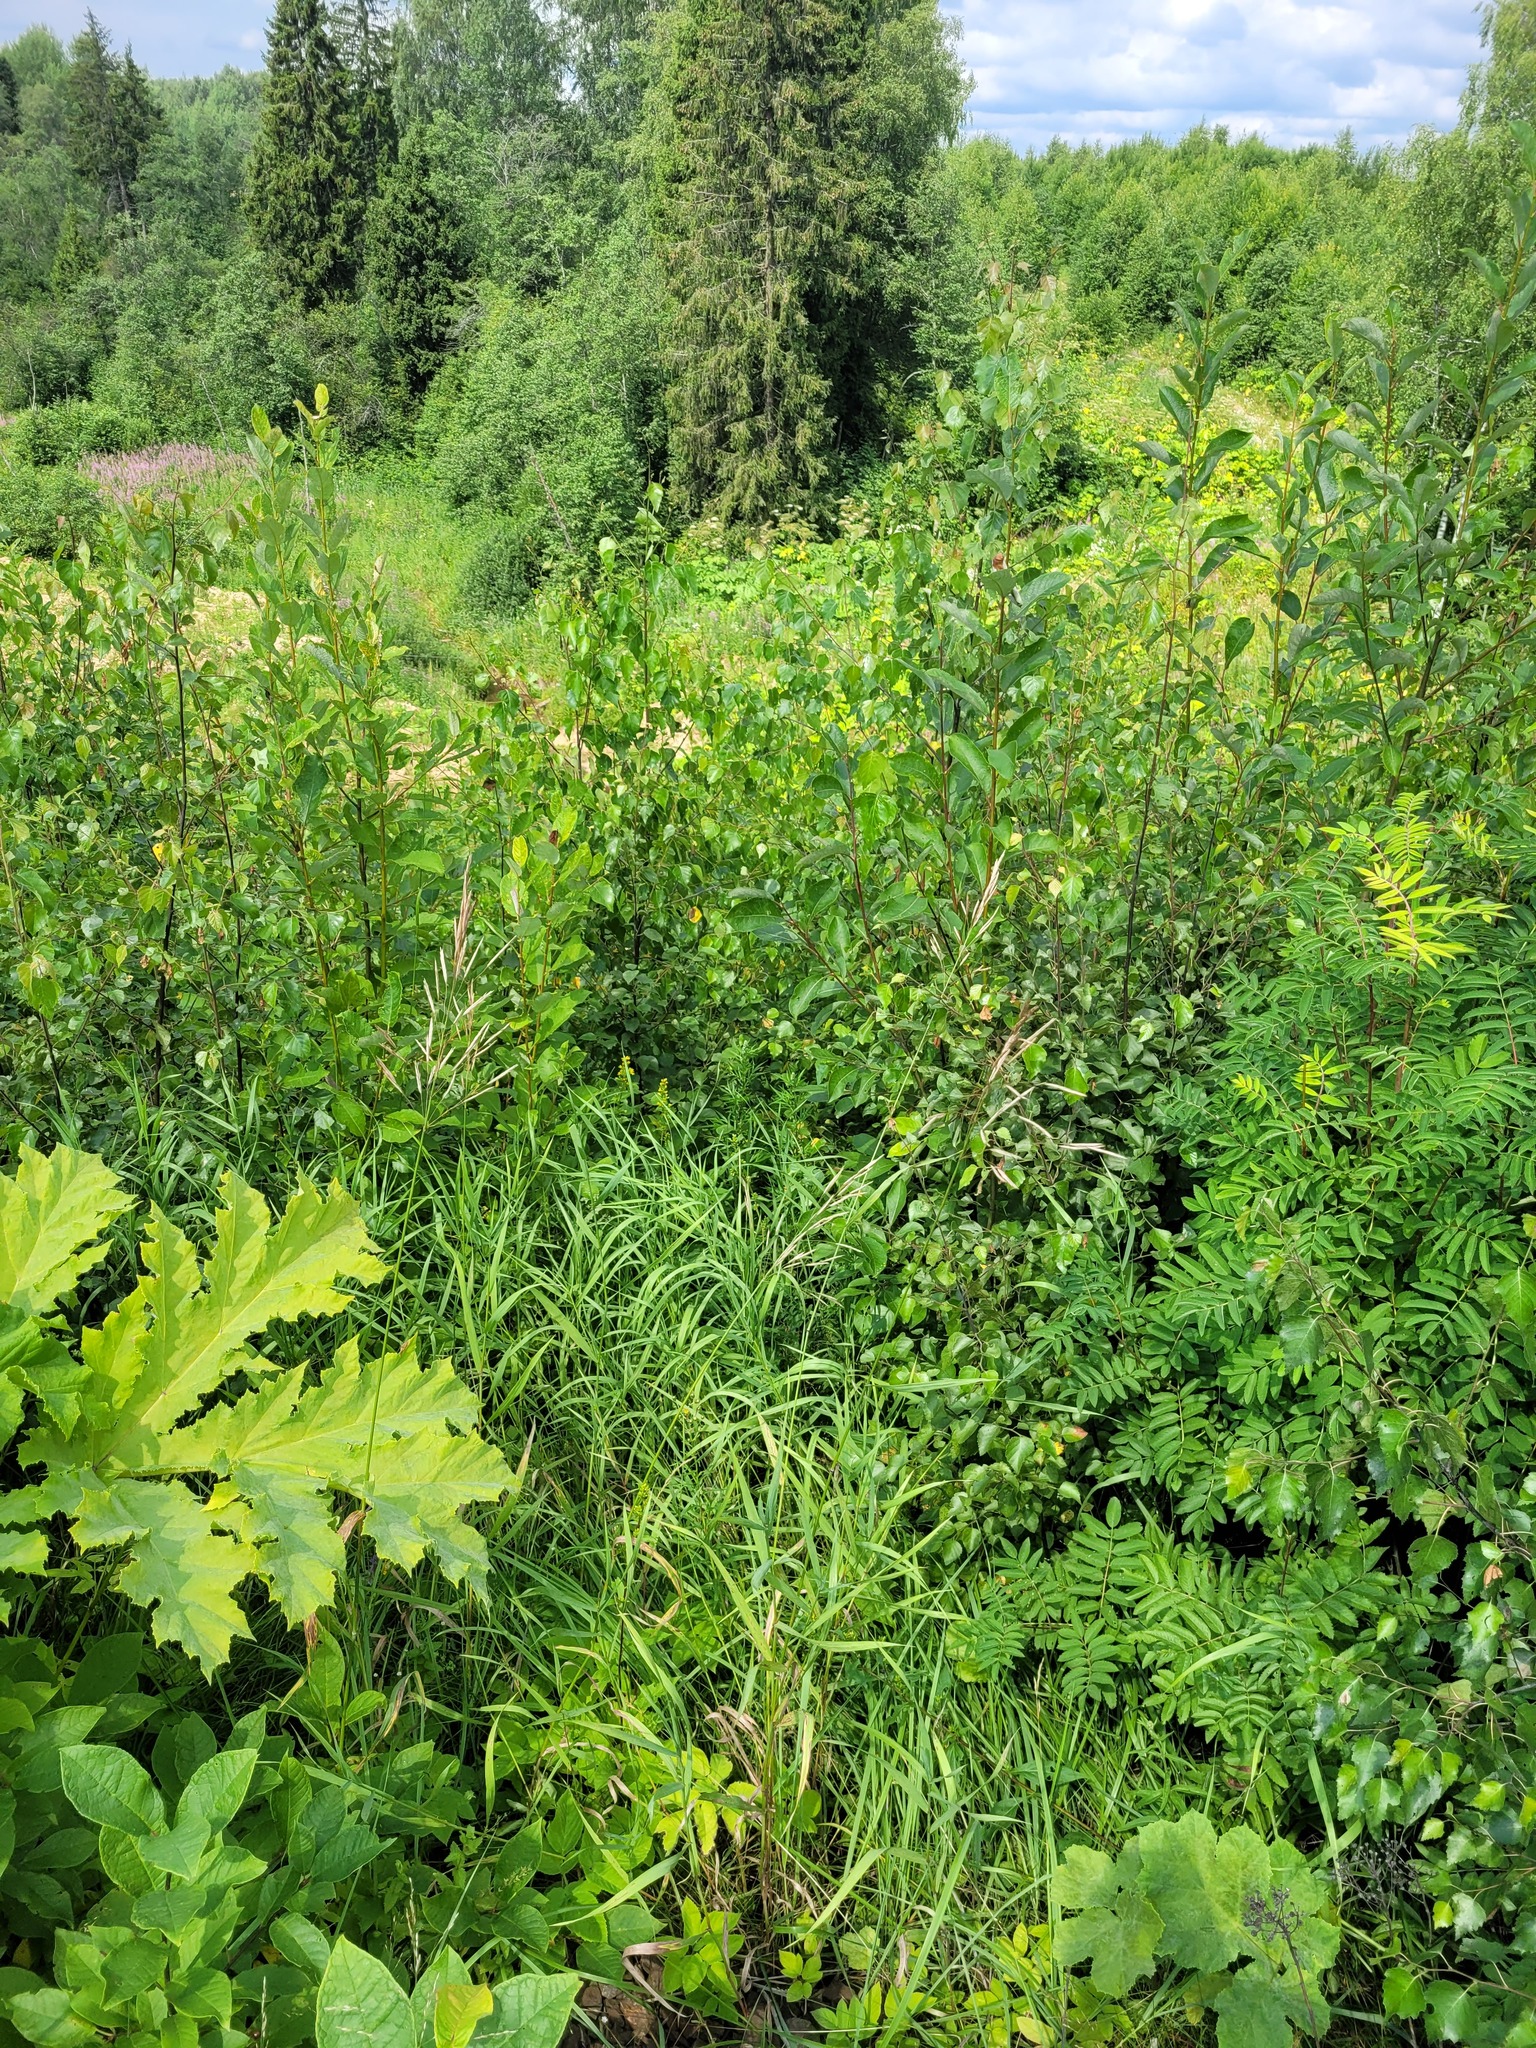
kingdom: Plantae
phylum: Tracheophyta
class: Liliopsida
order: Poales
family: Poaceae
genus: Bromus
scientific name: Bromus inermis
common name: Smooth brome
